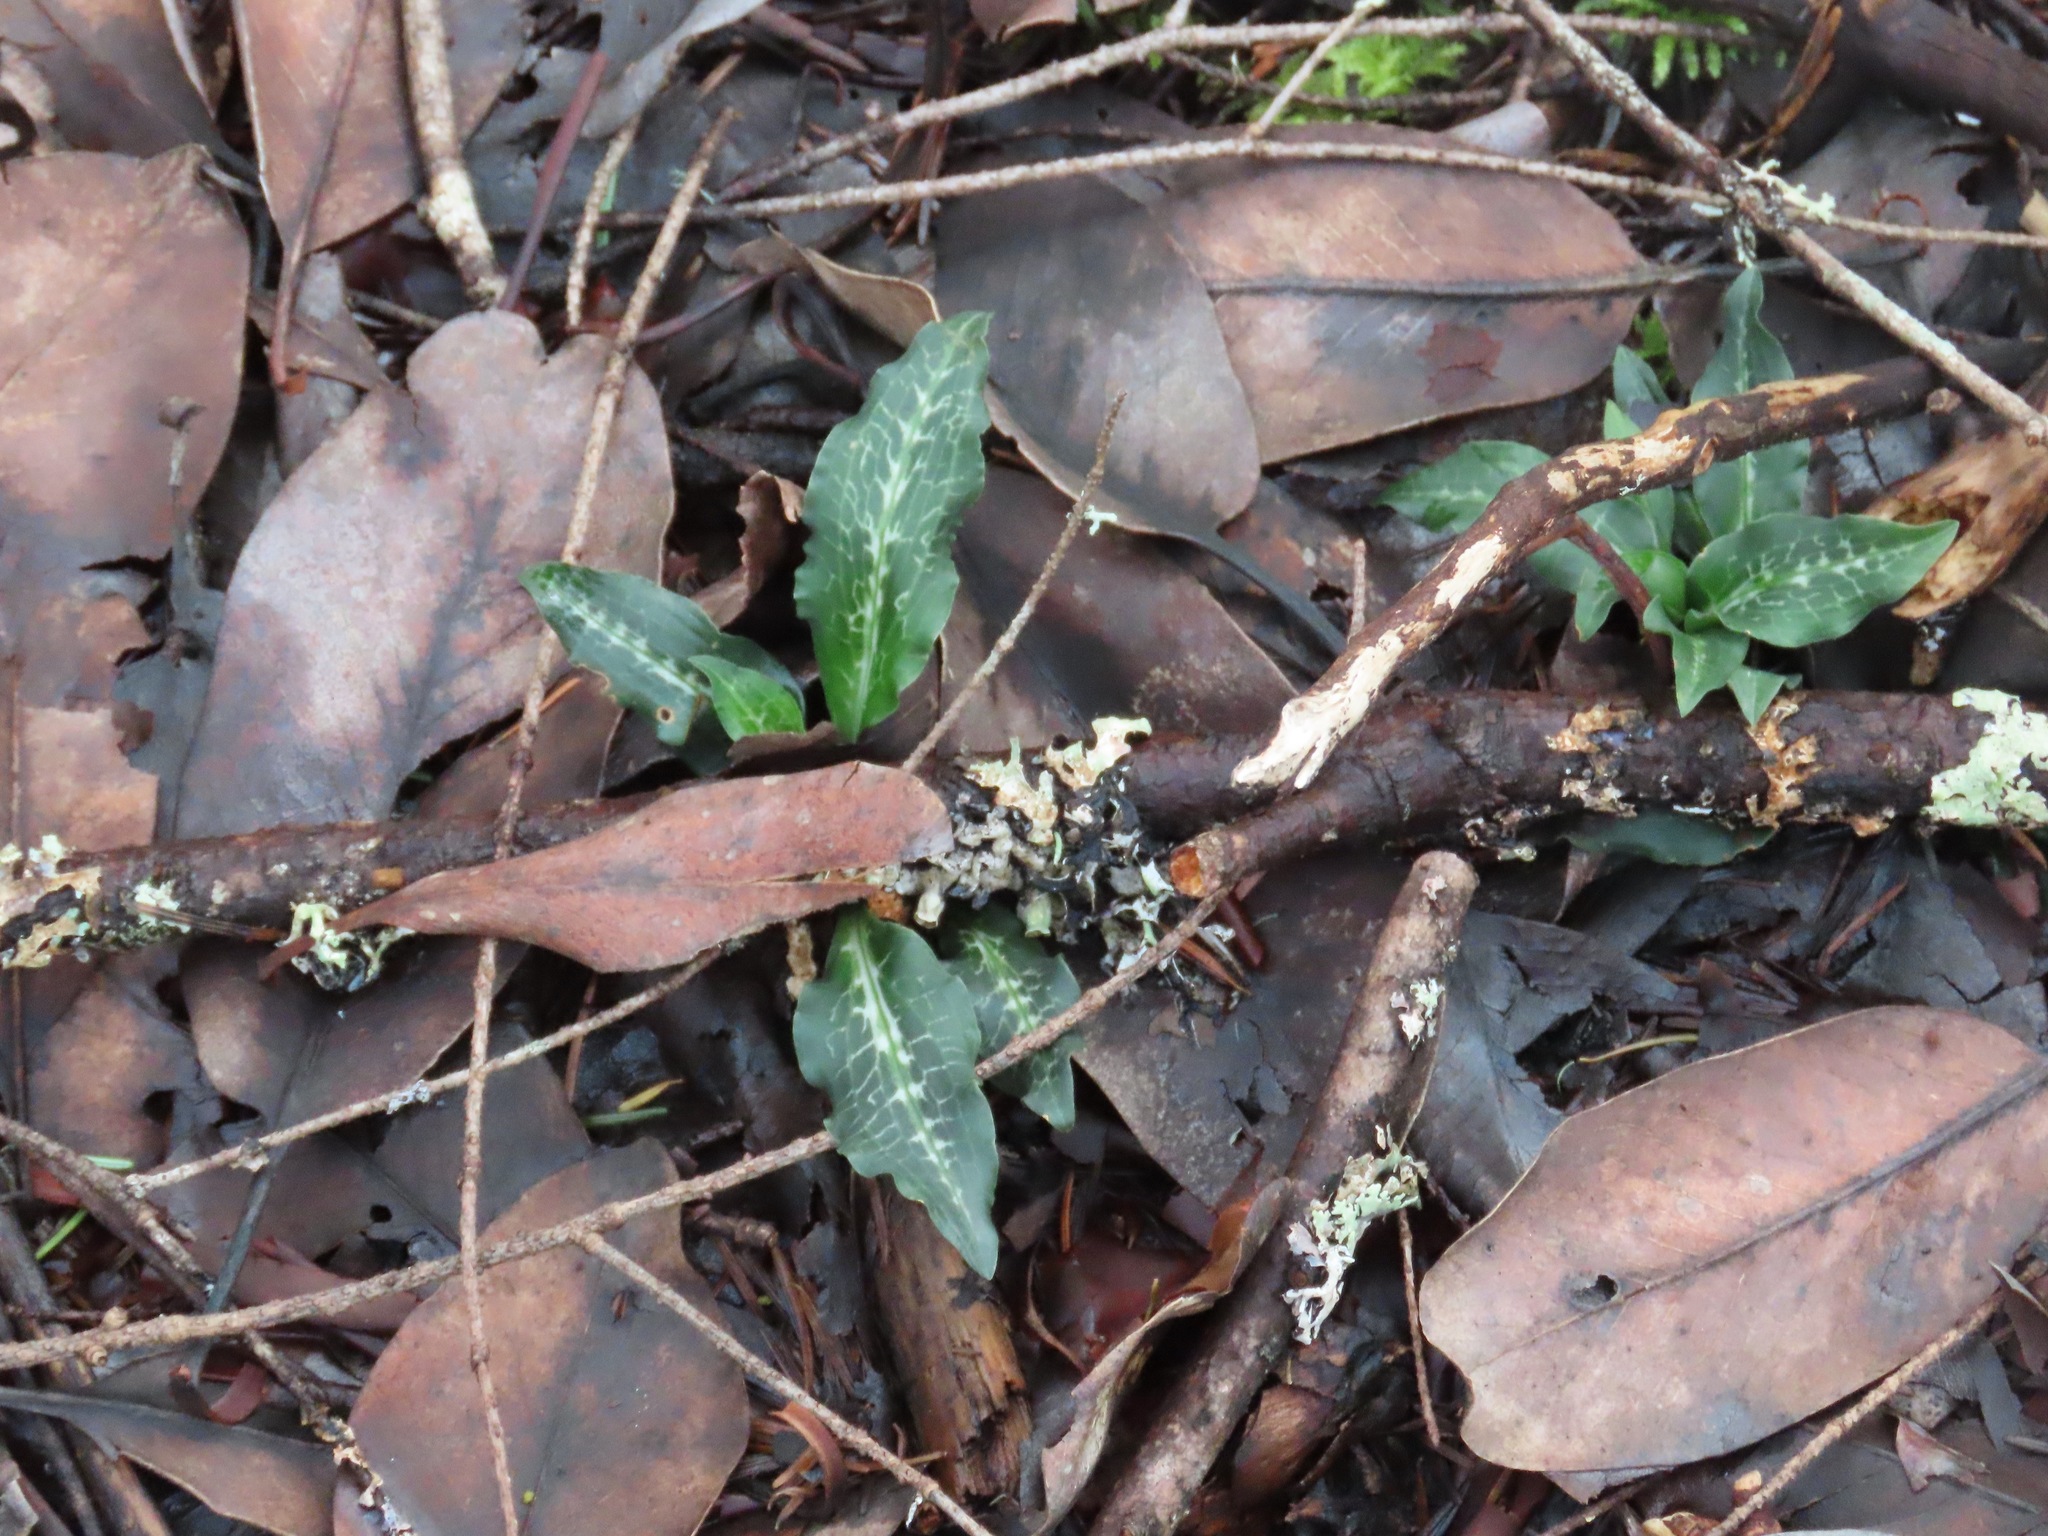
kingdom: Plantae
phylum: Tracheophyta
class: Liliopsida
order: Asparagales
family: Orchidaceae
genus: Goodyera
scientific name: Goodyera oblongifolia
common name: Giant rattlesnake-plantain
